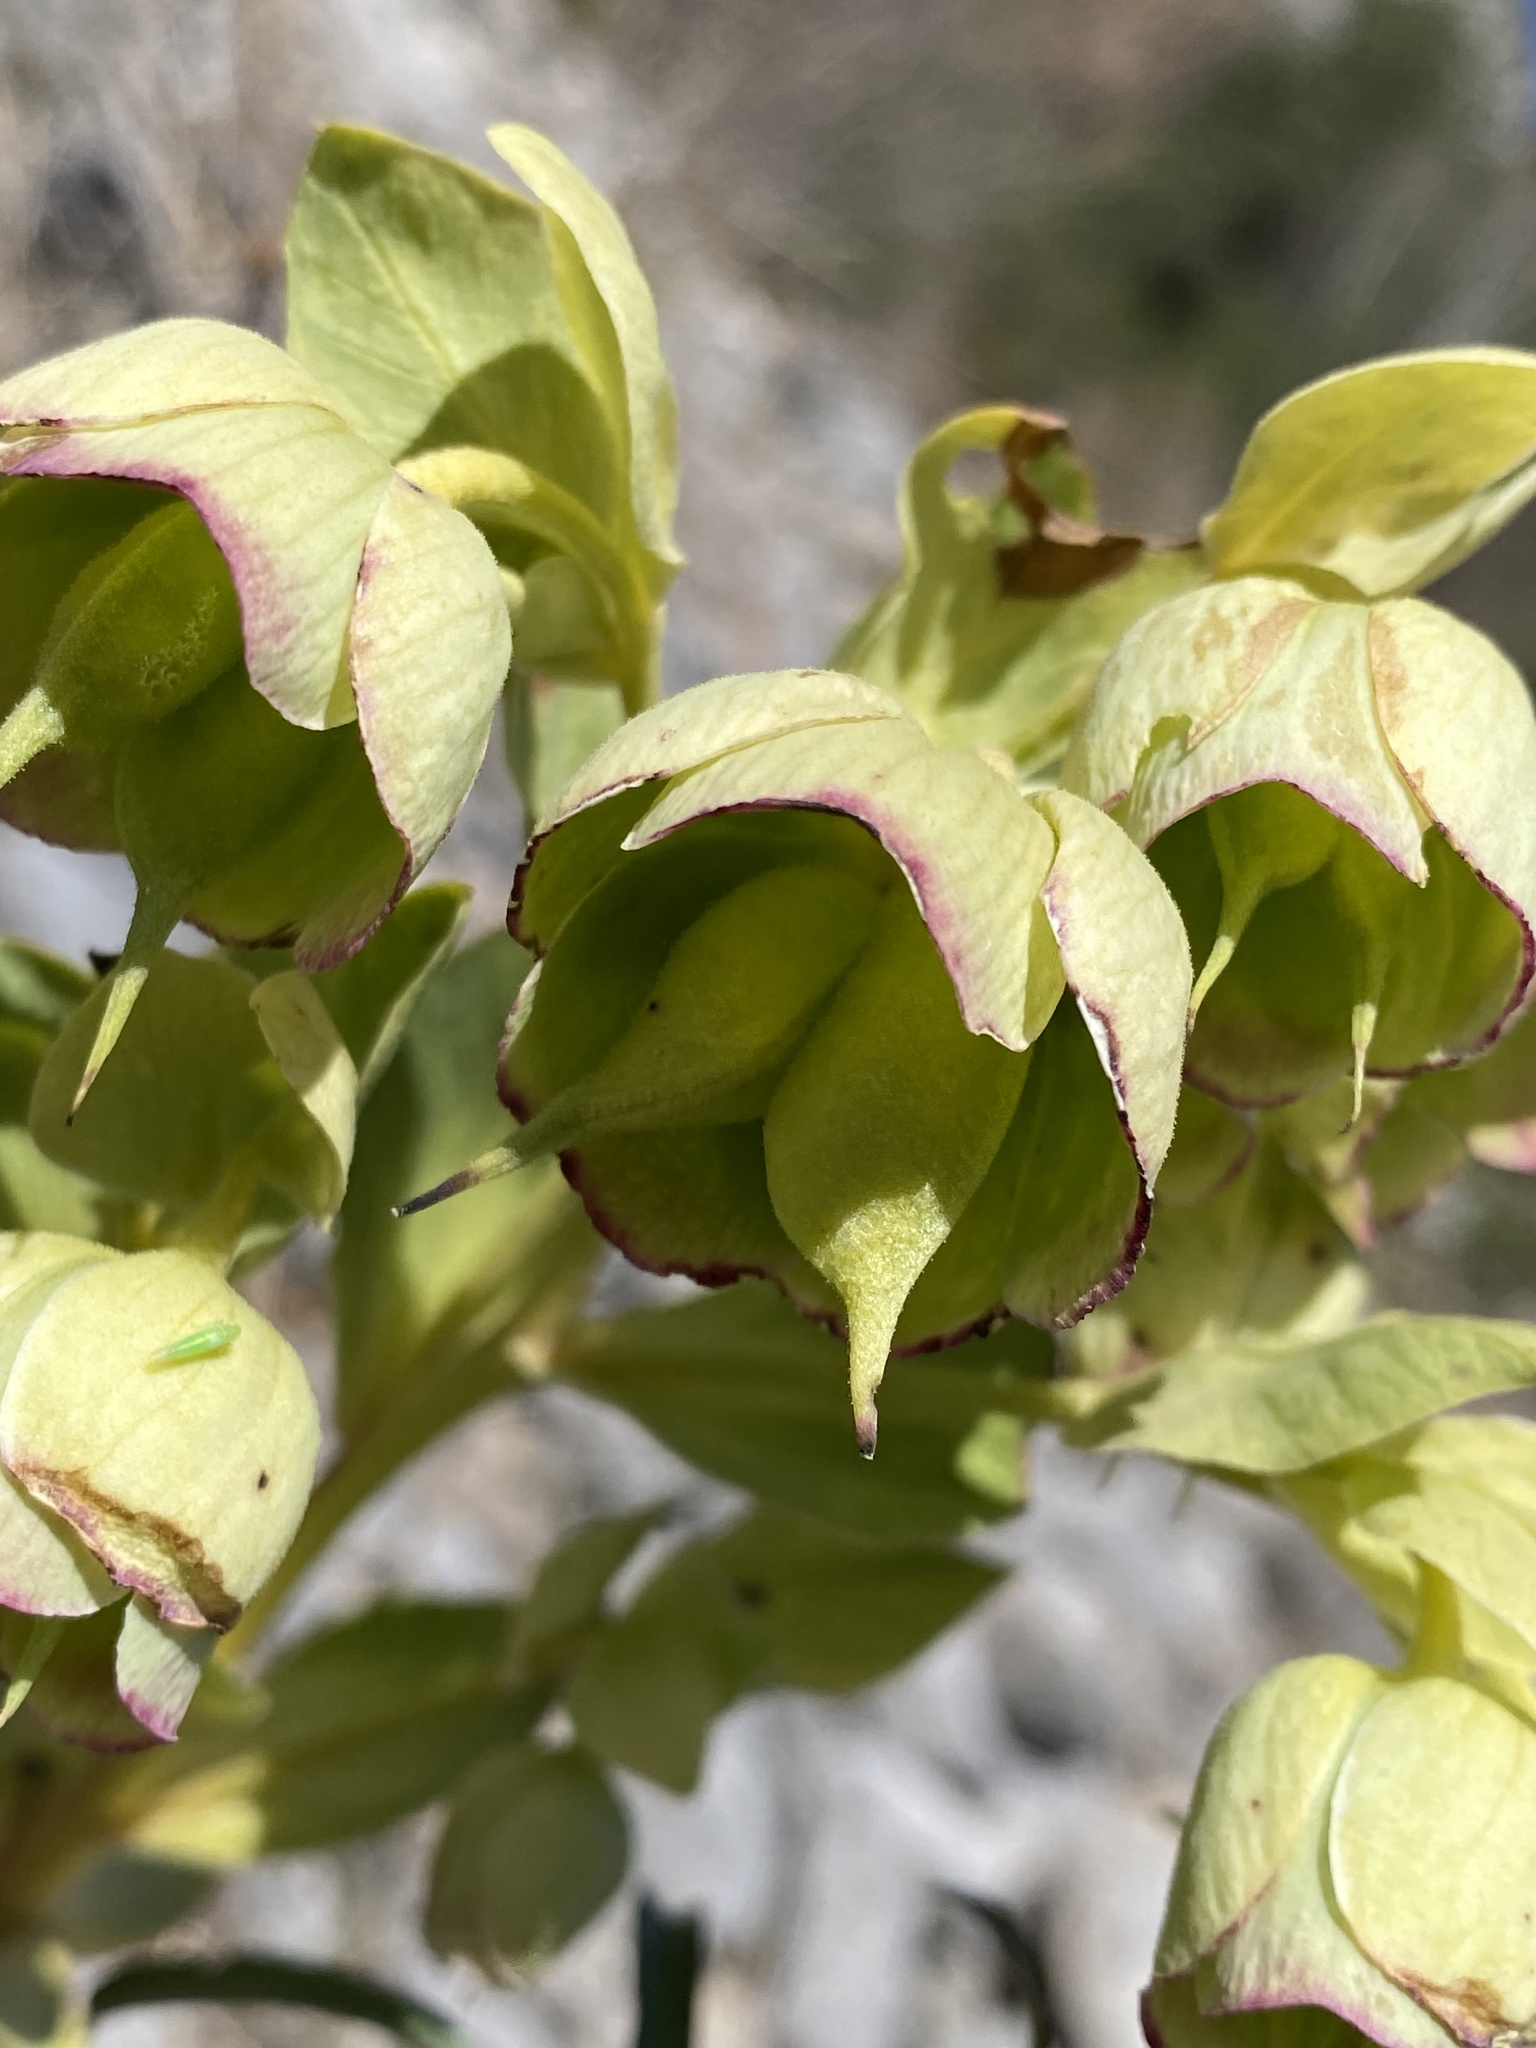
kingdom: Plantae
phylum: Tracheophyta
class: Magnoliopsida
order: Ranunculales
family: Ranunculaceae
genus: Helleborus
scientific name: Helleborus foetidus
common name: Stinking hellebore
